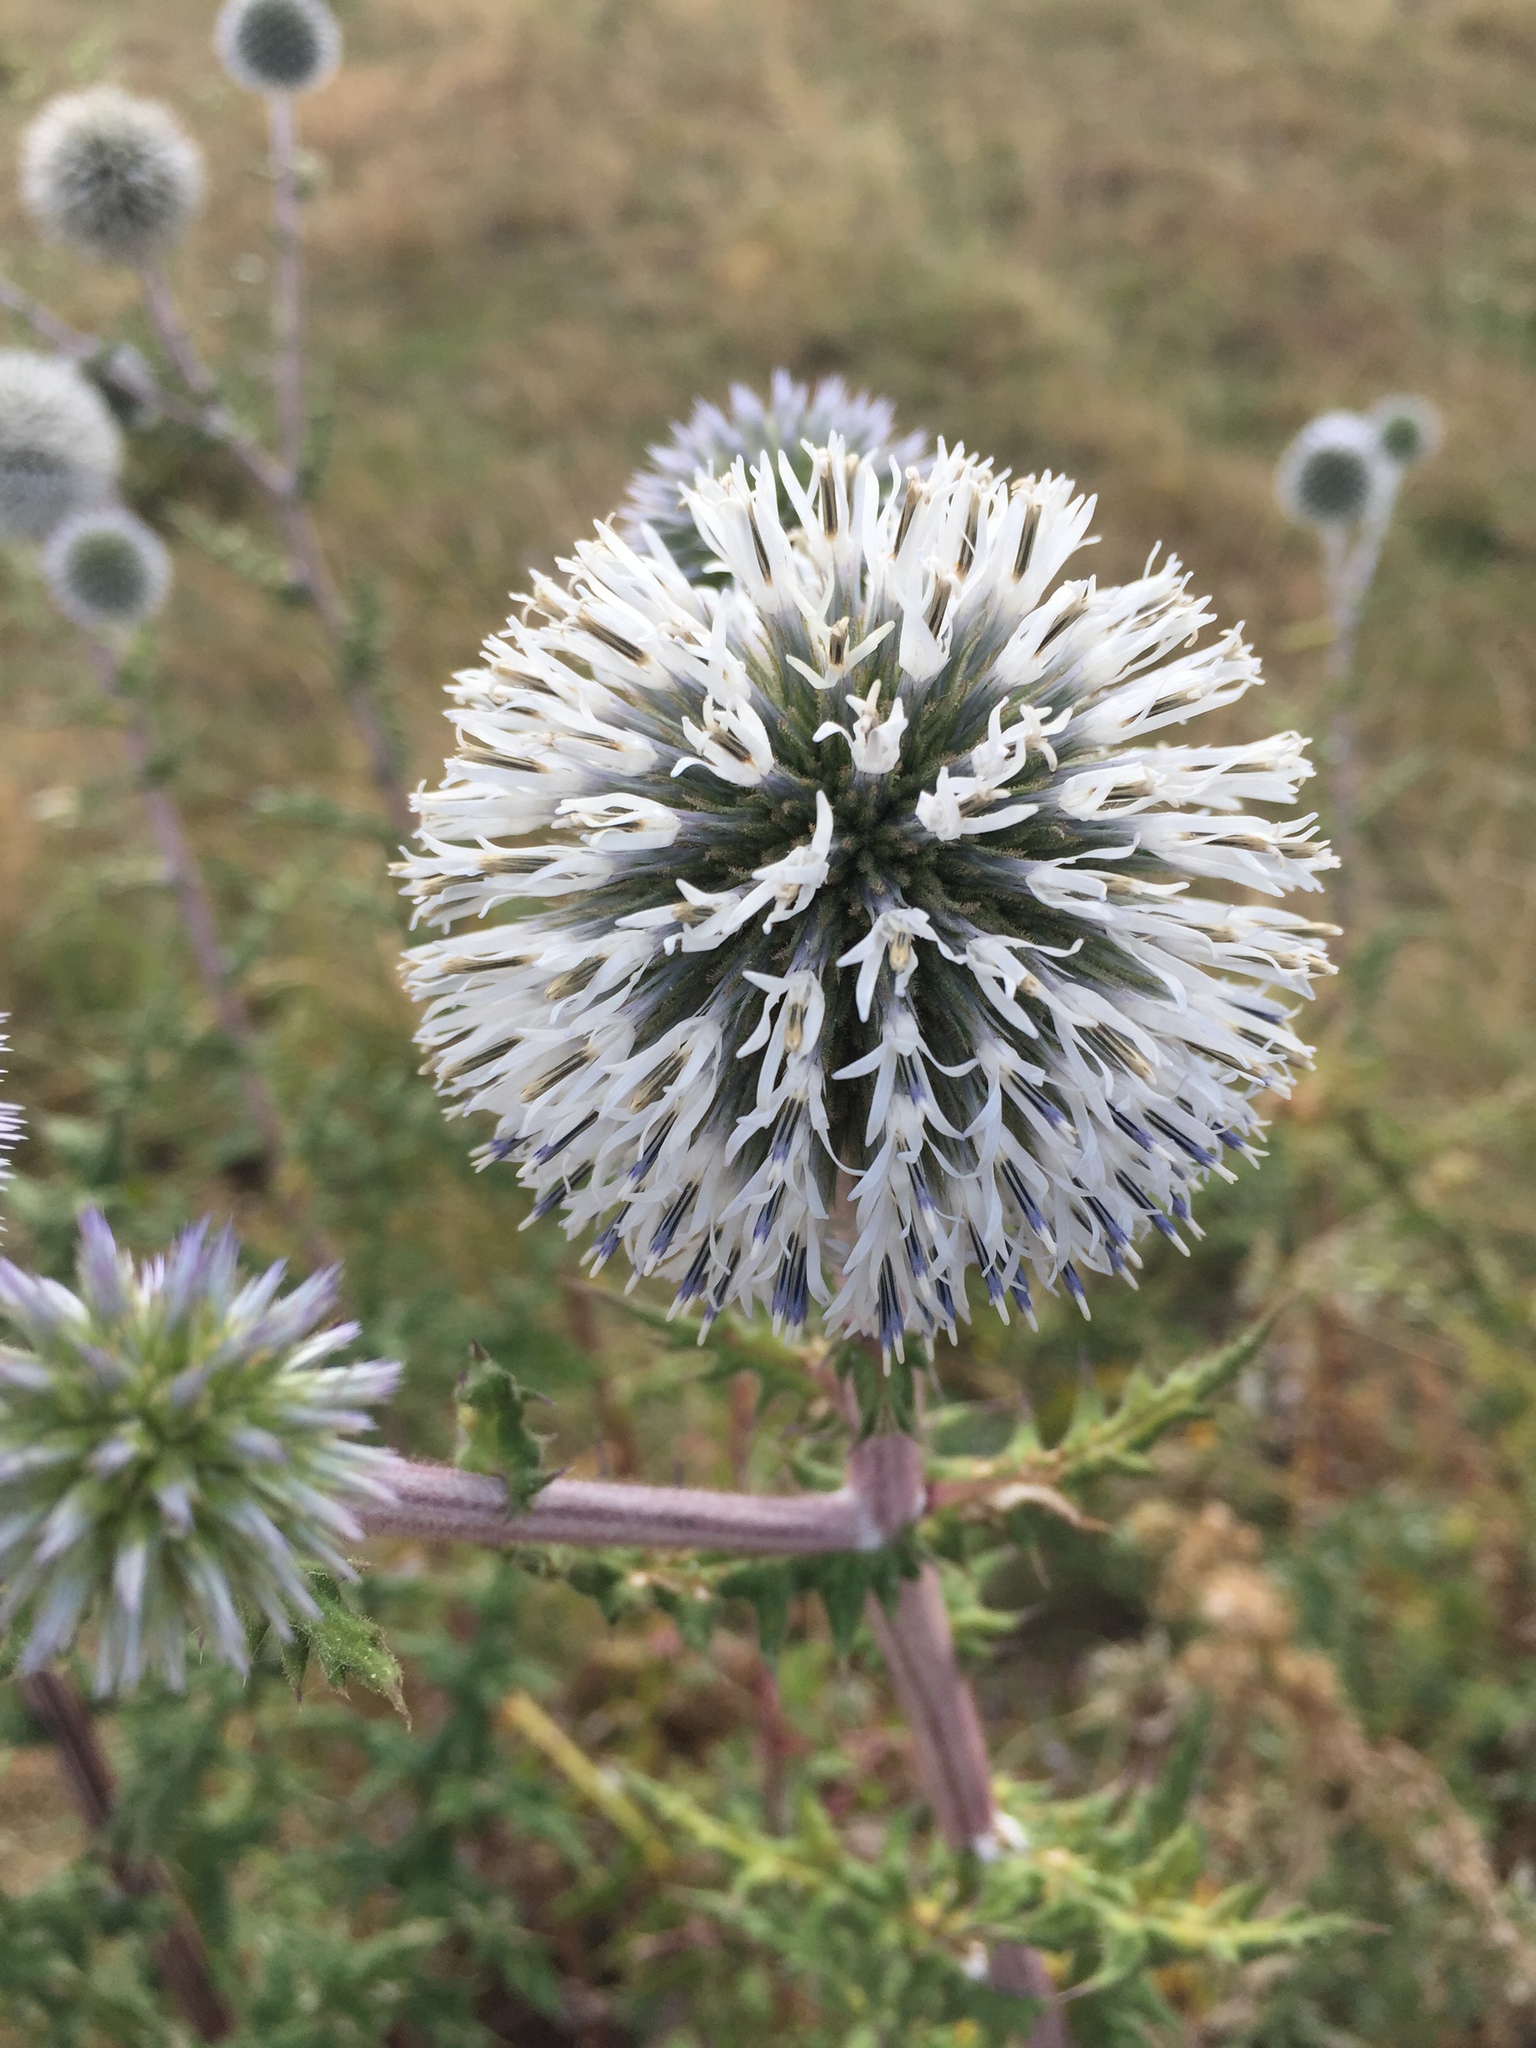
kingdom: Plantae
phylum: Tracheophyta
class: Magnoliopsida
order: Asterales
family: Asteraceae
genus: Echinops
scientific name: Echinops sphaerocephalus
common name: Glandular globe-thistle
